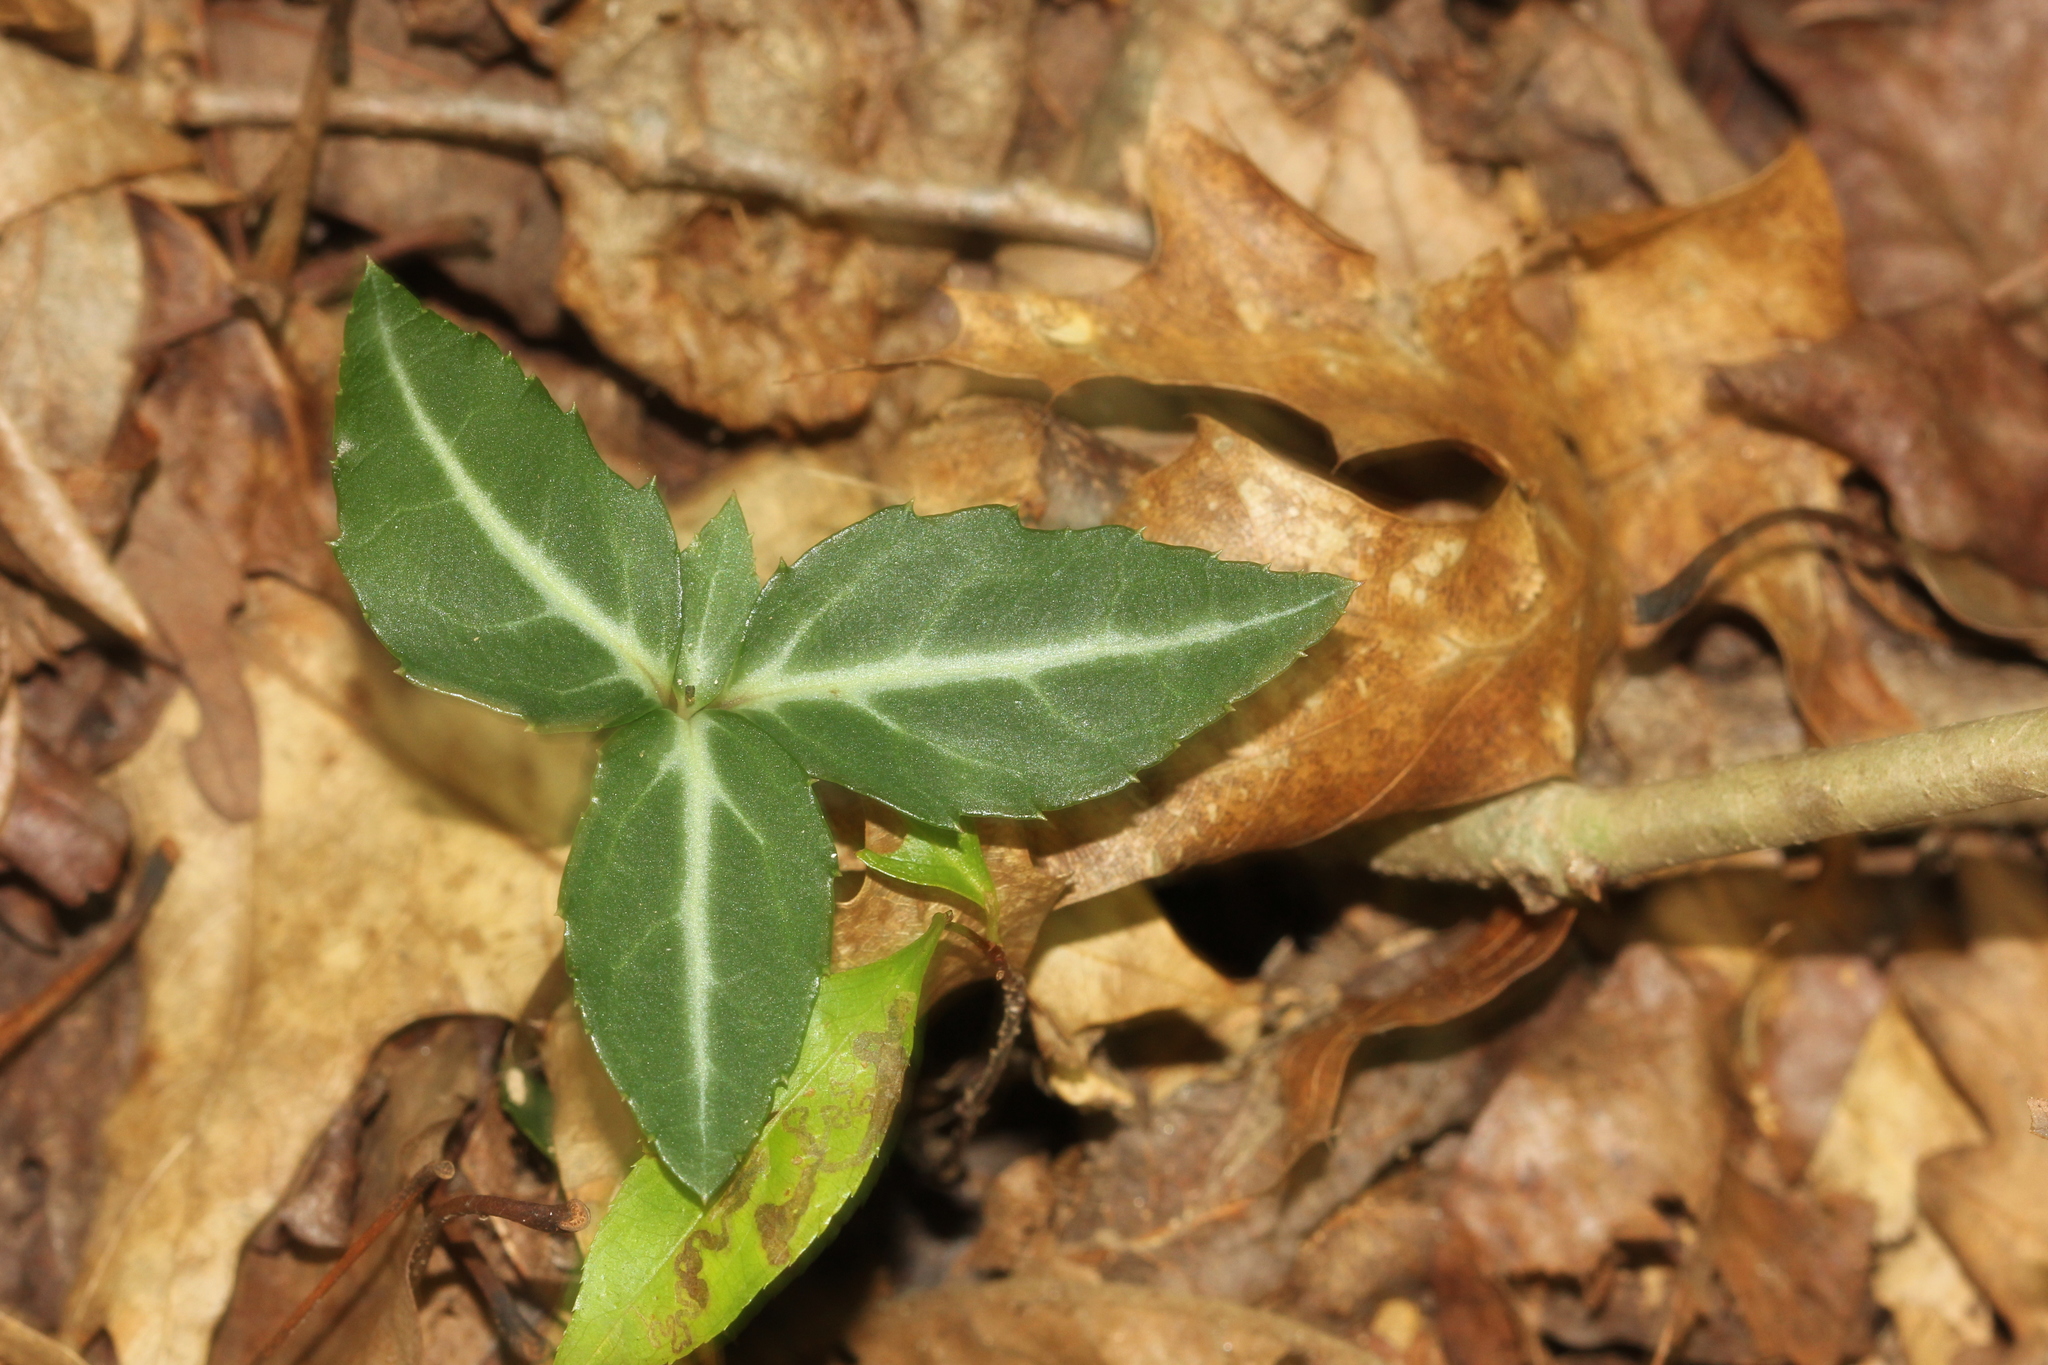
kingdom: Plantae
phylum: Tracheophyta
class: Magnoliopsida
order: Ericales
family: Ericaceae
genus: Chimaphila
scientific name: Chimaphila maculata
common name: Spotted pipsissewa
